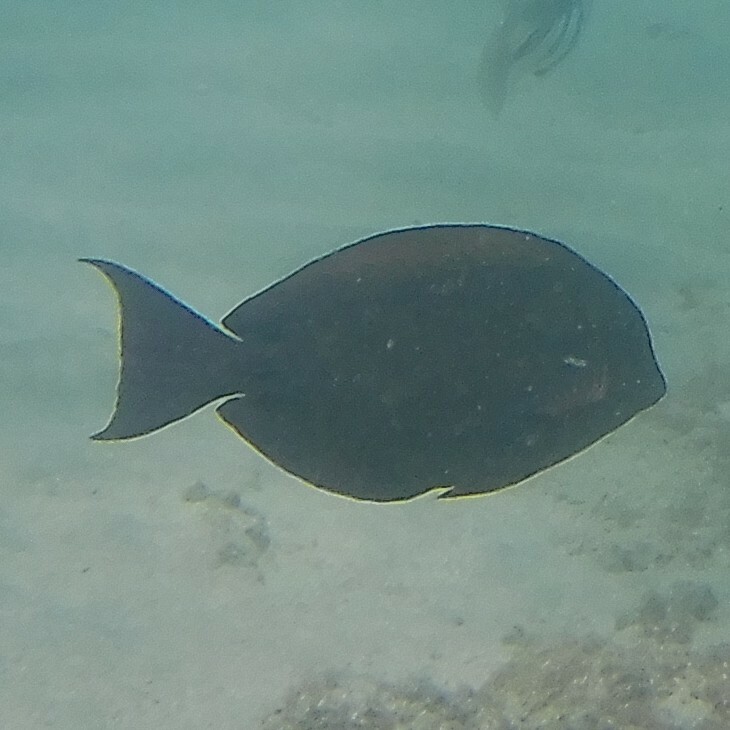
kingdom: Animalia
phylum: Chordata
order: Perciformes
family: Acanthuridae
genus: Acanthurus
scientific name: Acanthurus nigrofuscus
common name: Blackspot surgeonfish
